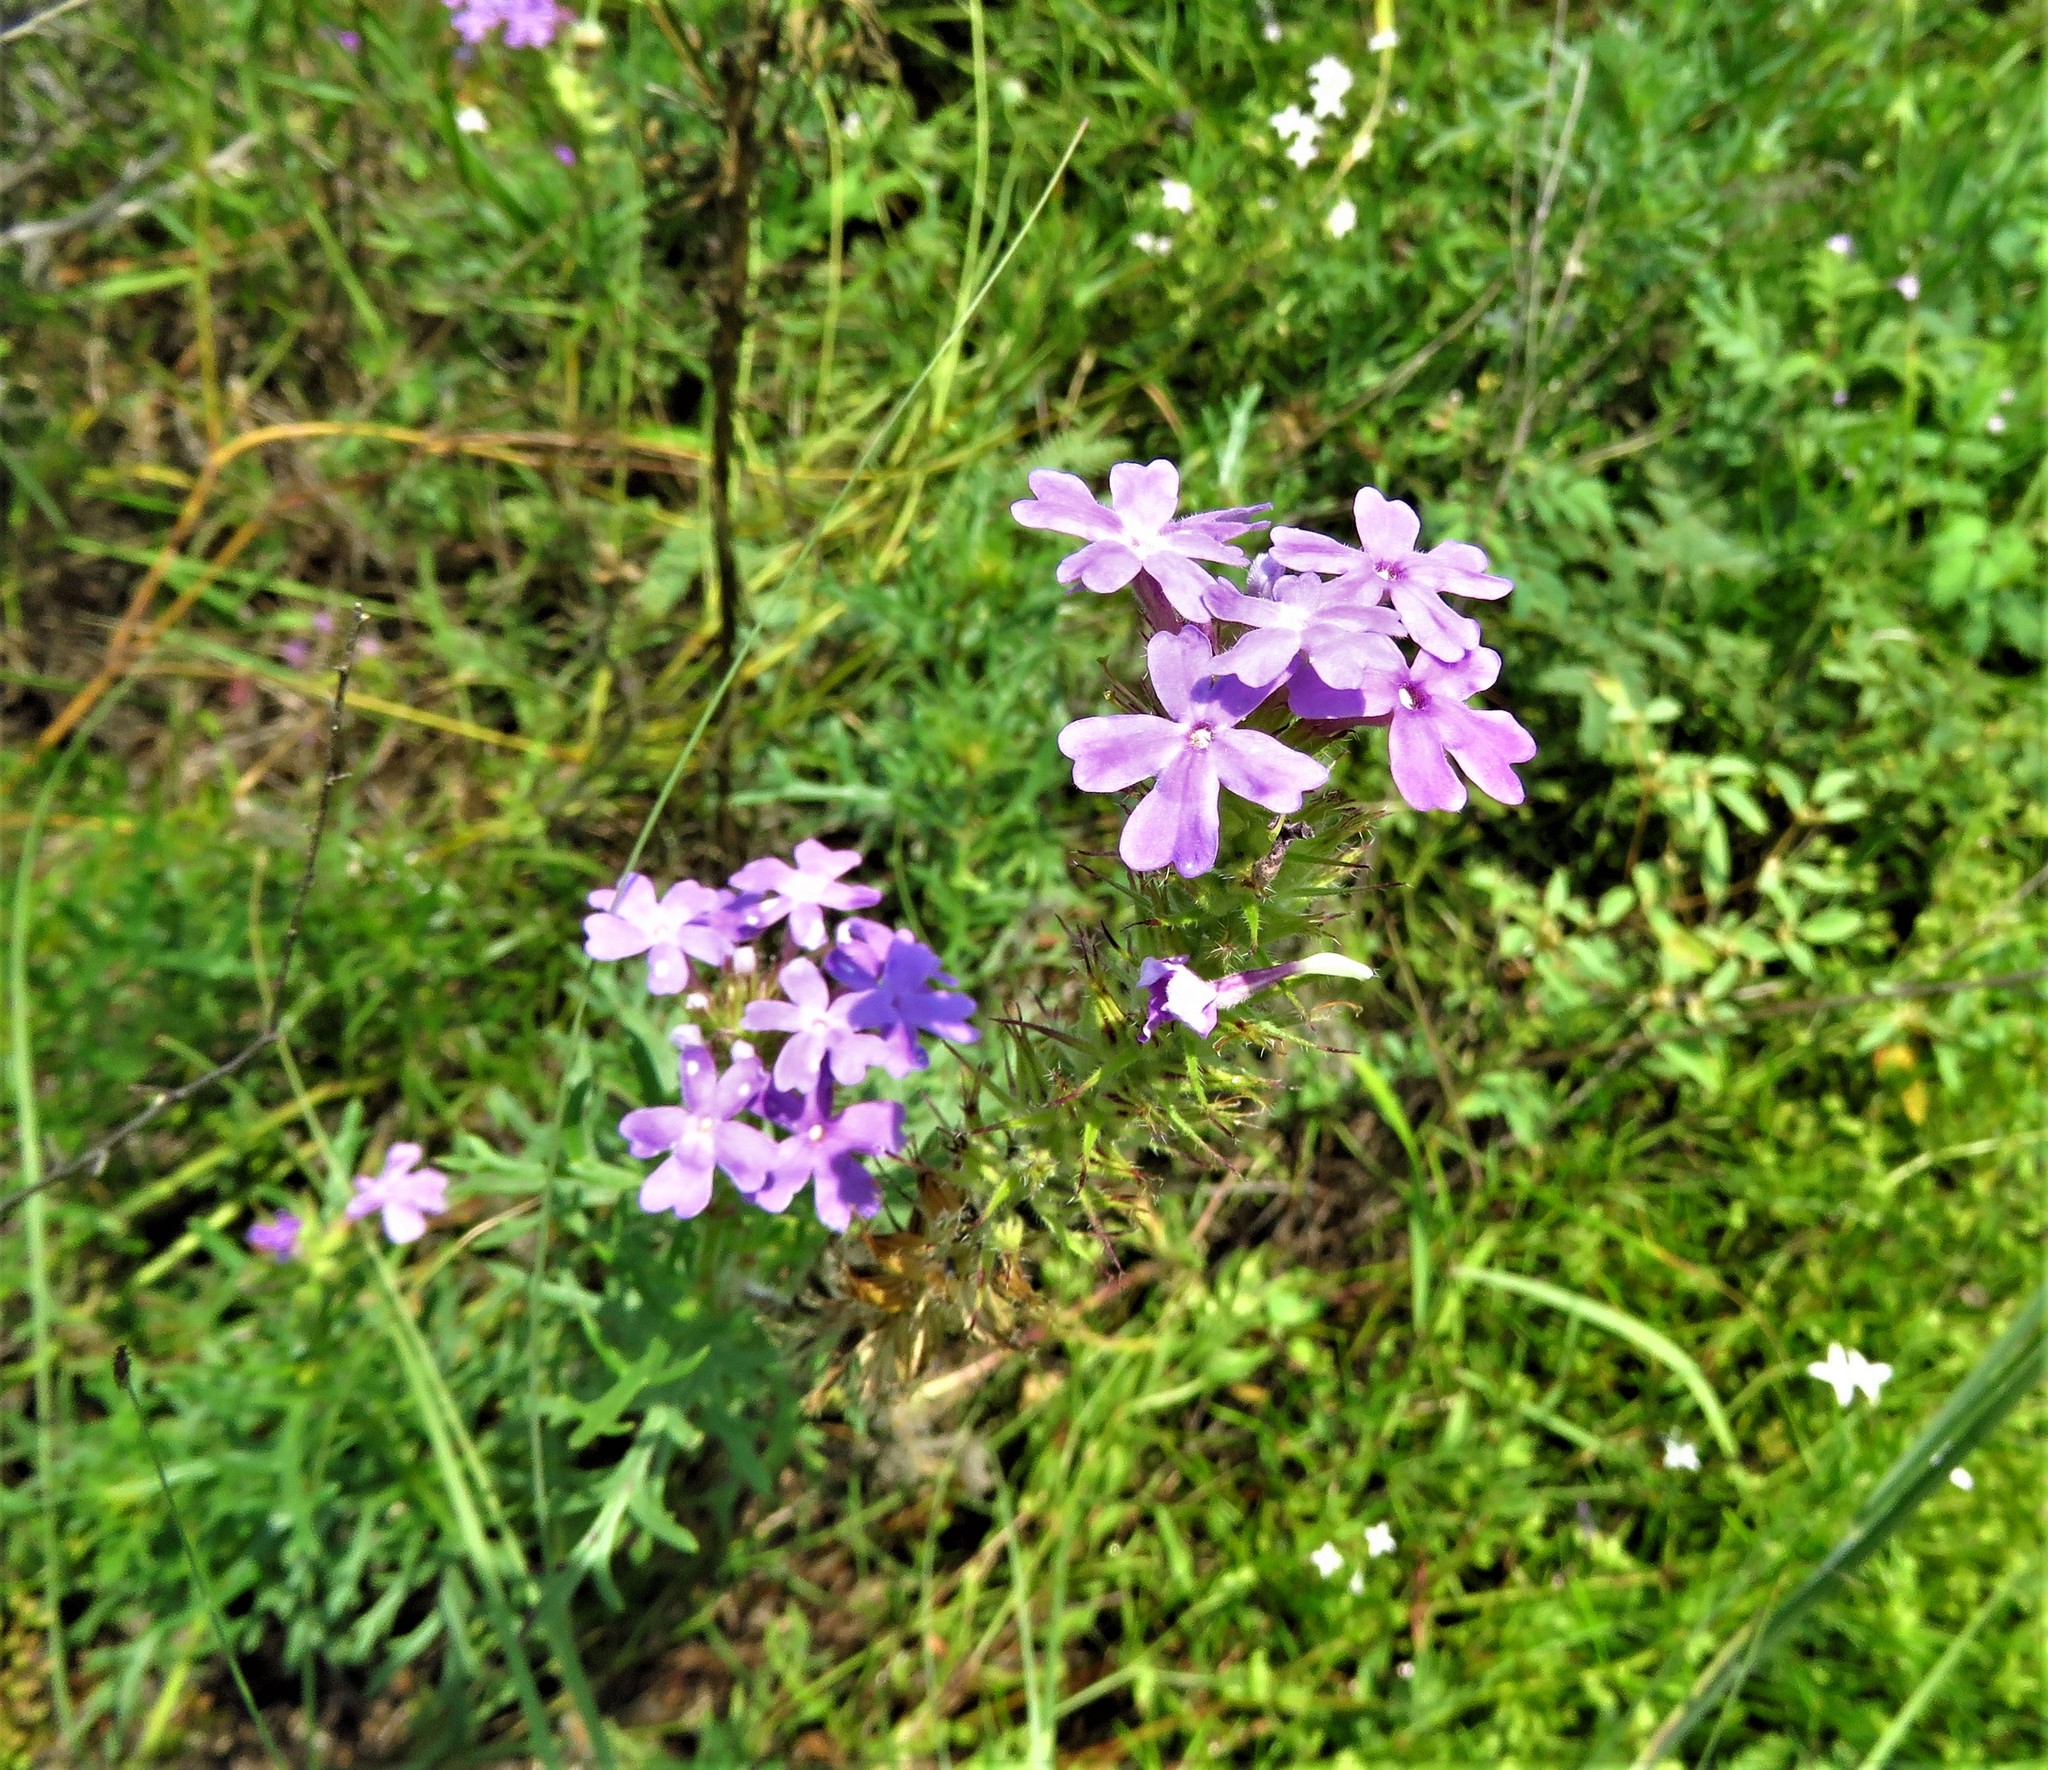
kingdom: Plantae
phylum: Tracheophyta
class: Magnoliopsida
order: Lamiales
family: Verbenaceae
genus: Verbena
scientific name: Verbena bipinnatifida
